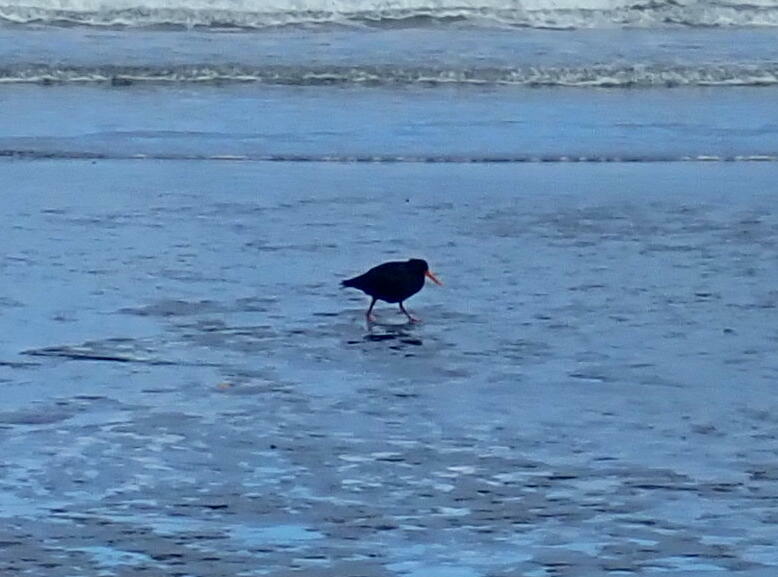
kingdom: Animalia
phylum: Chordata
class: Aves
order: Charadriiformes
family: Haematopodidae
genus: Haematopus
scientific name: Haematopus unicolor
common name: Variable oystercatcher
